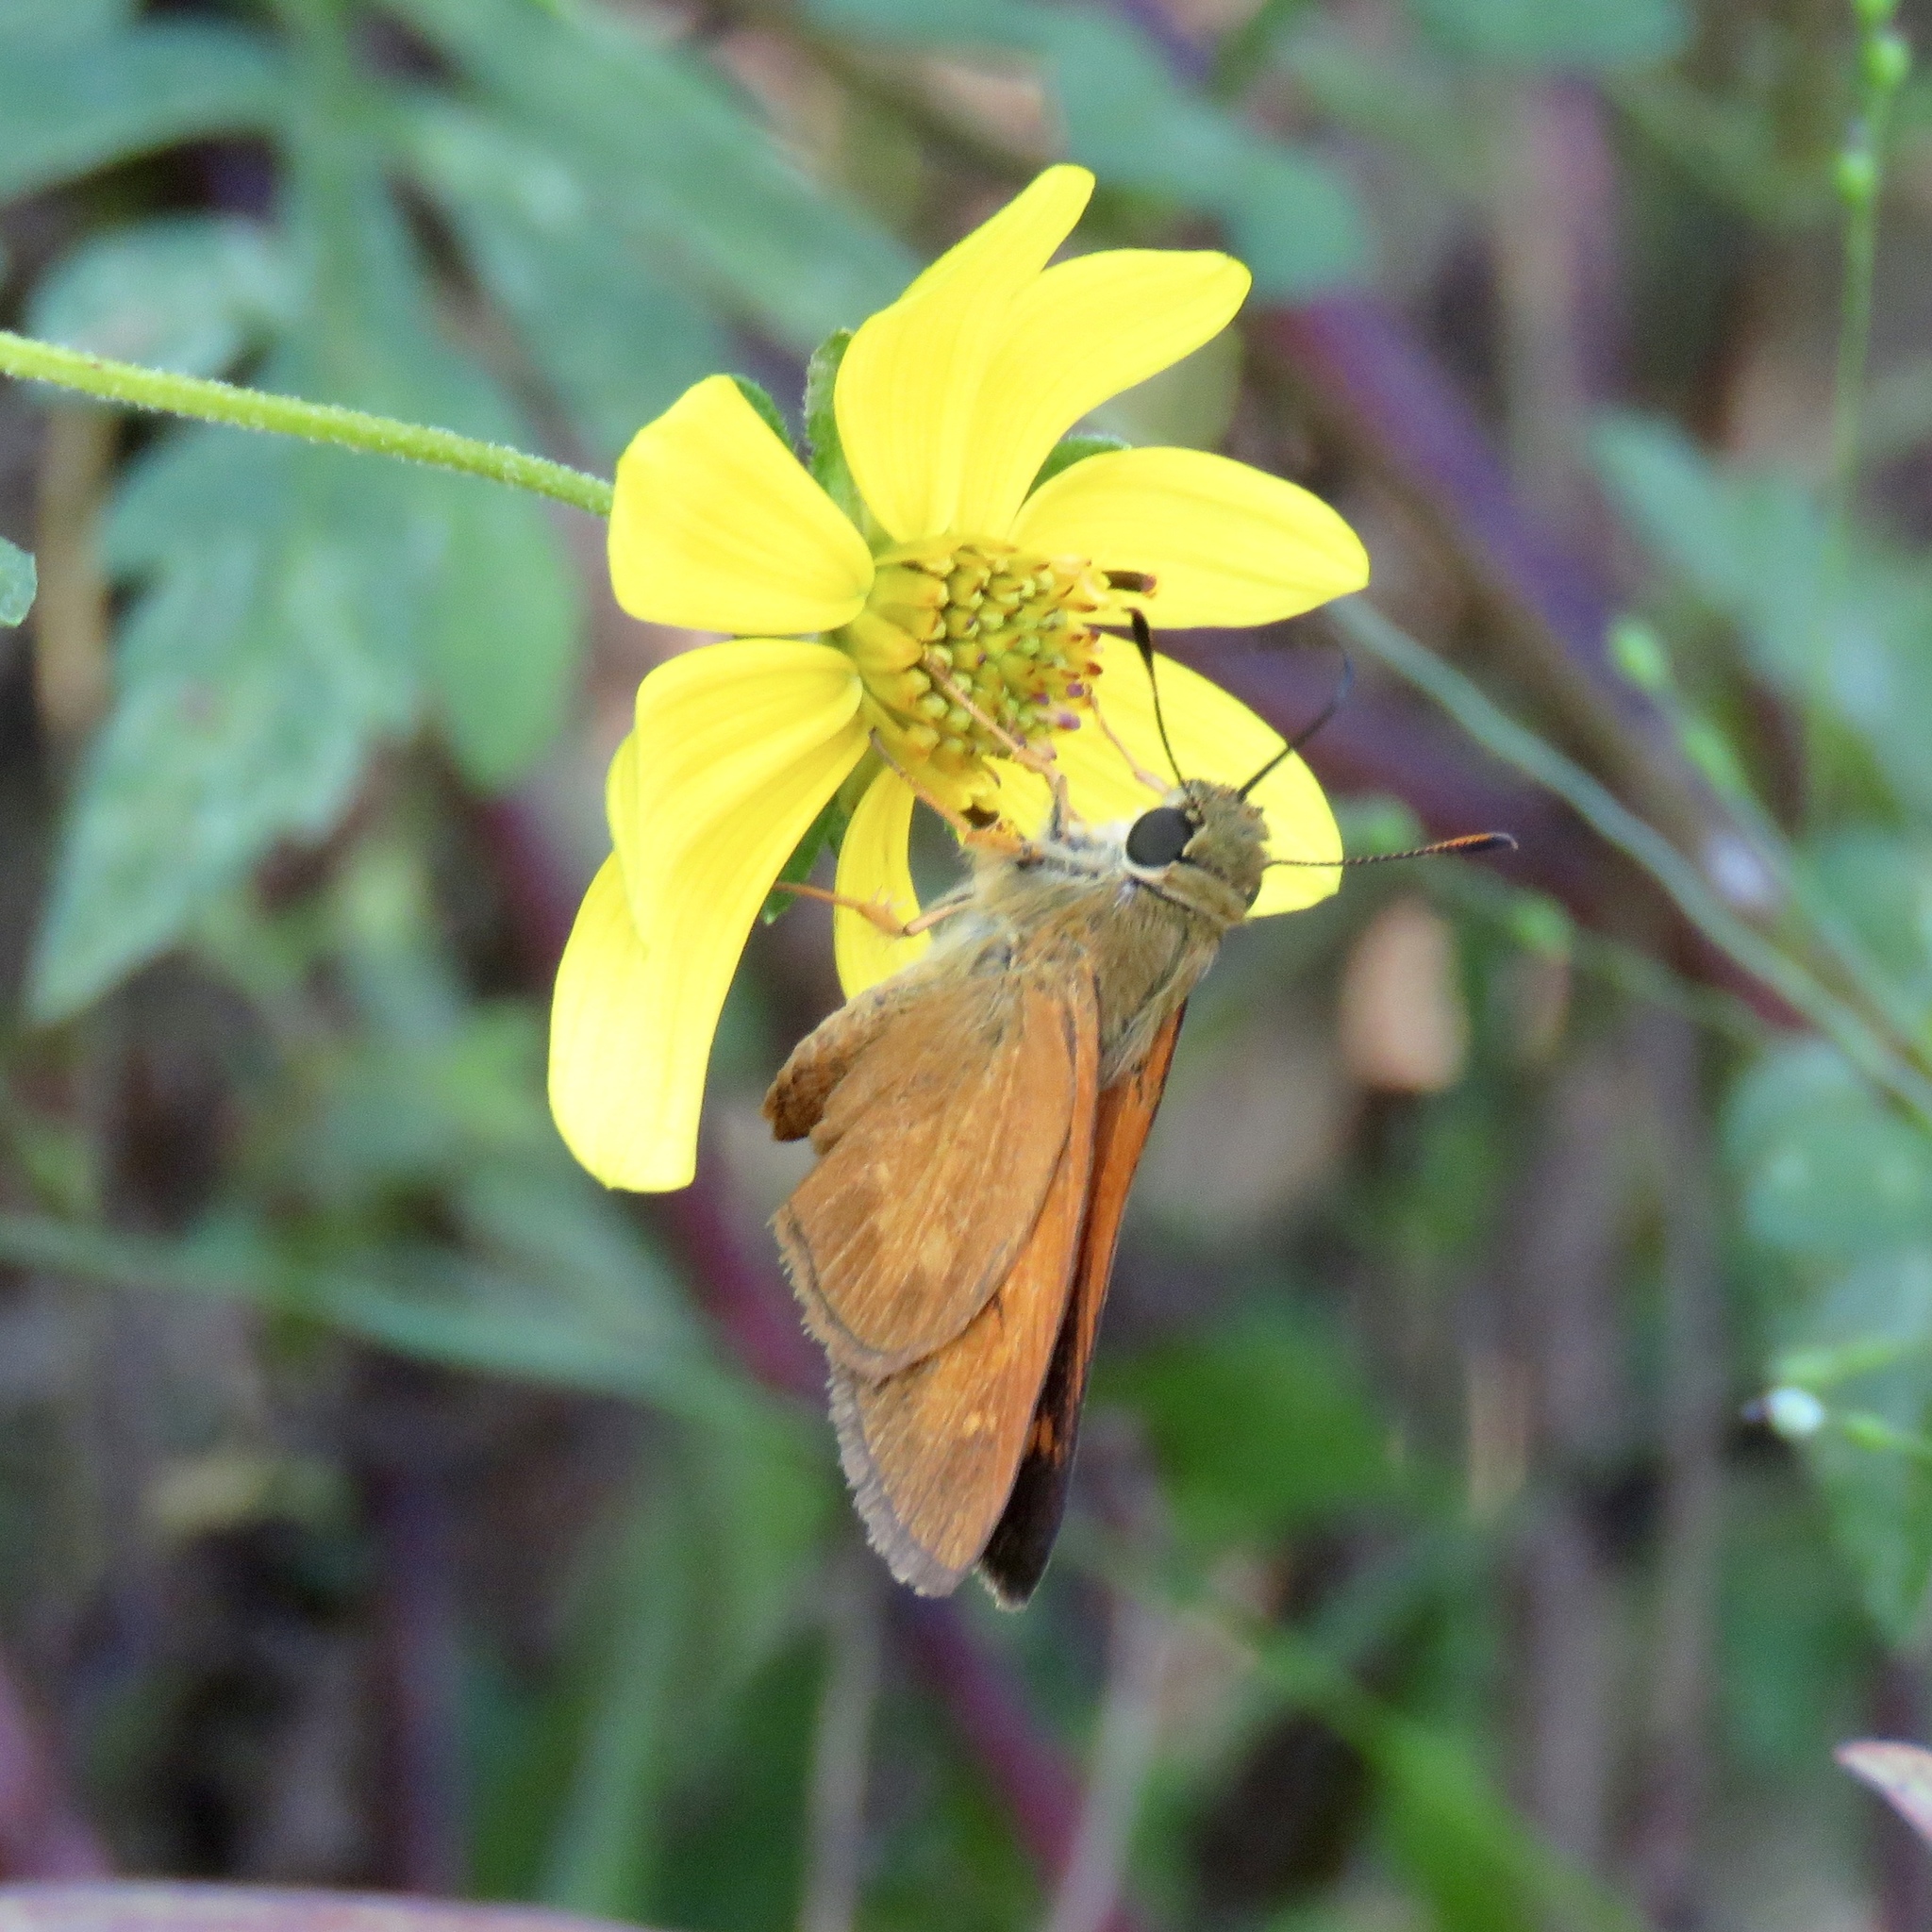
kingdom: Animalia
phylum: Arthropoda
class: Insecta
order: Lepidoptera
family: Hesperiidae
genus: Poanes
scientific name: Poanes yehl
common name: Yehl skipper
